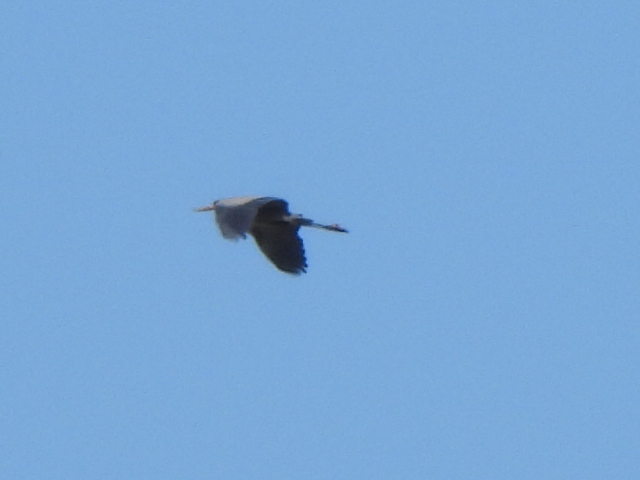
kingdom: Animalia
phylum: Chordata
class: Aves
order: Pelecaniformes
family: Ardeidae
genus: Ardea
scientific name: Ardea herodias
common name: Great blue heron
